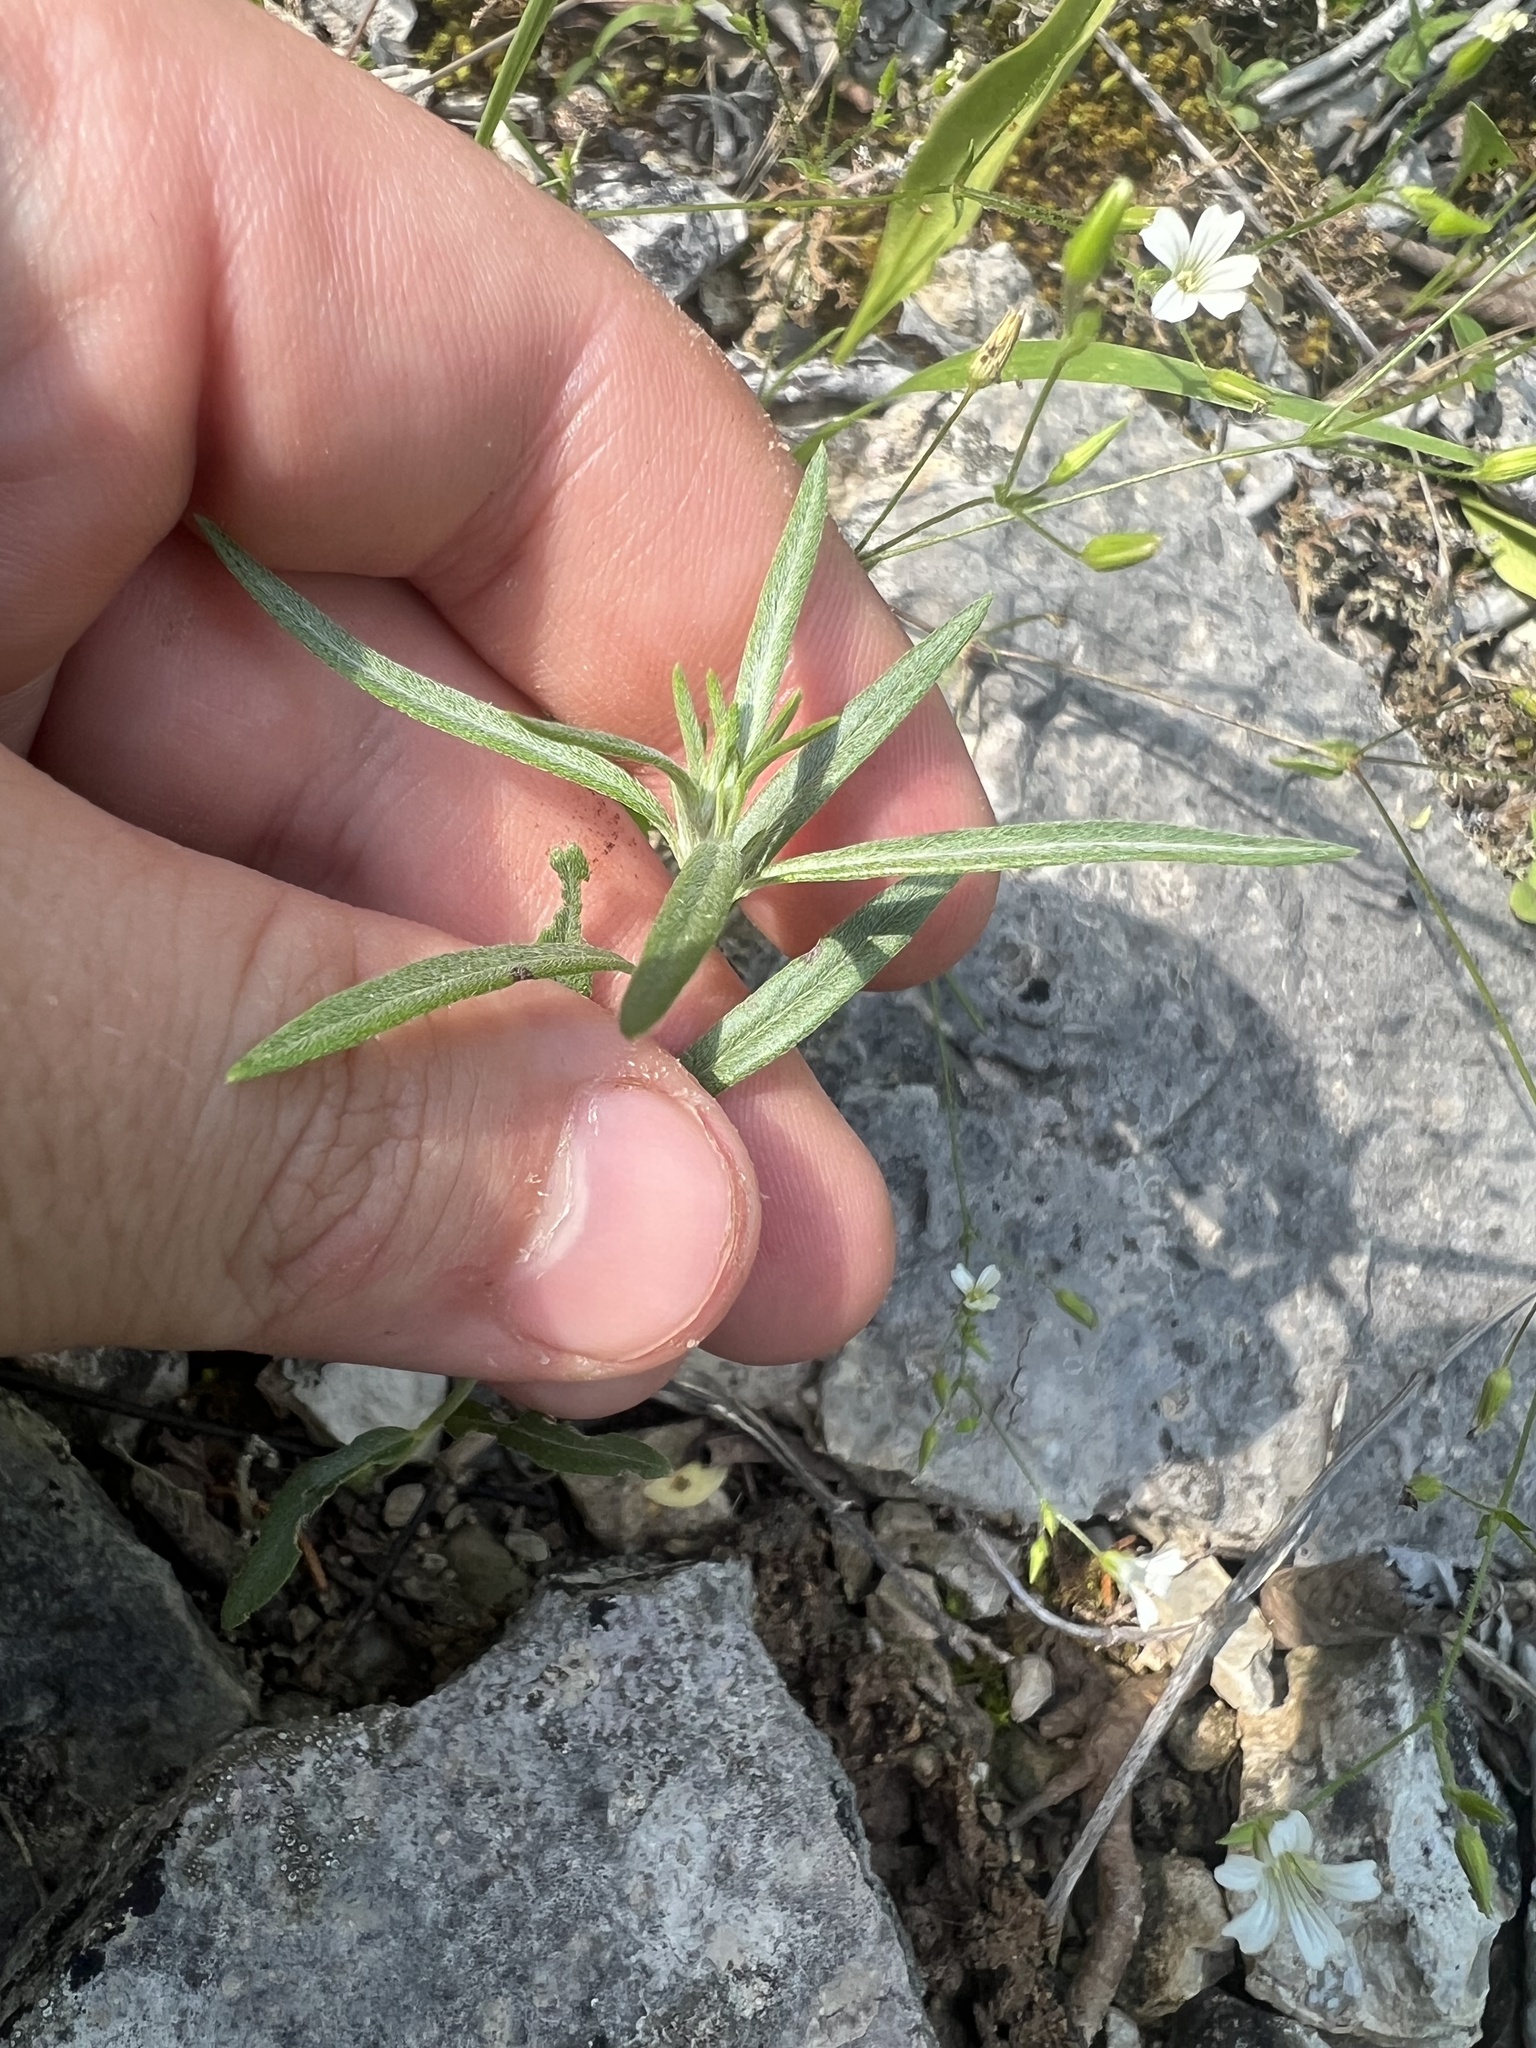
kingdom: Plantae
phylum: Tracheophyta
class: Magnoliopsida
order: Boraginales
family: Heliotropiaceae
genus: Euploca
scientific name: Euploca tenella
